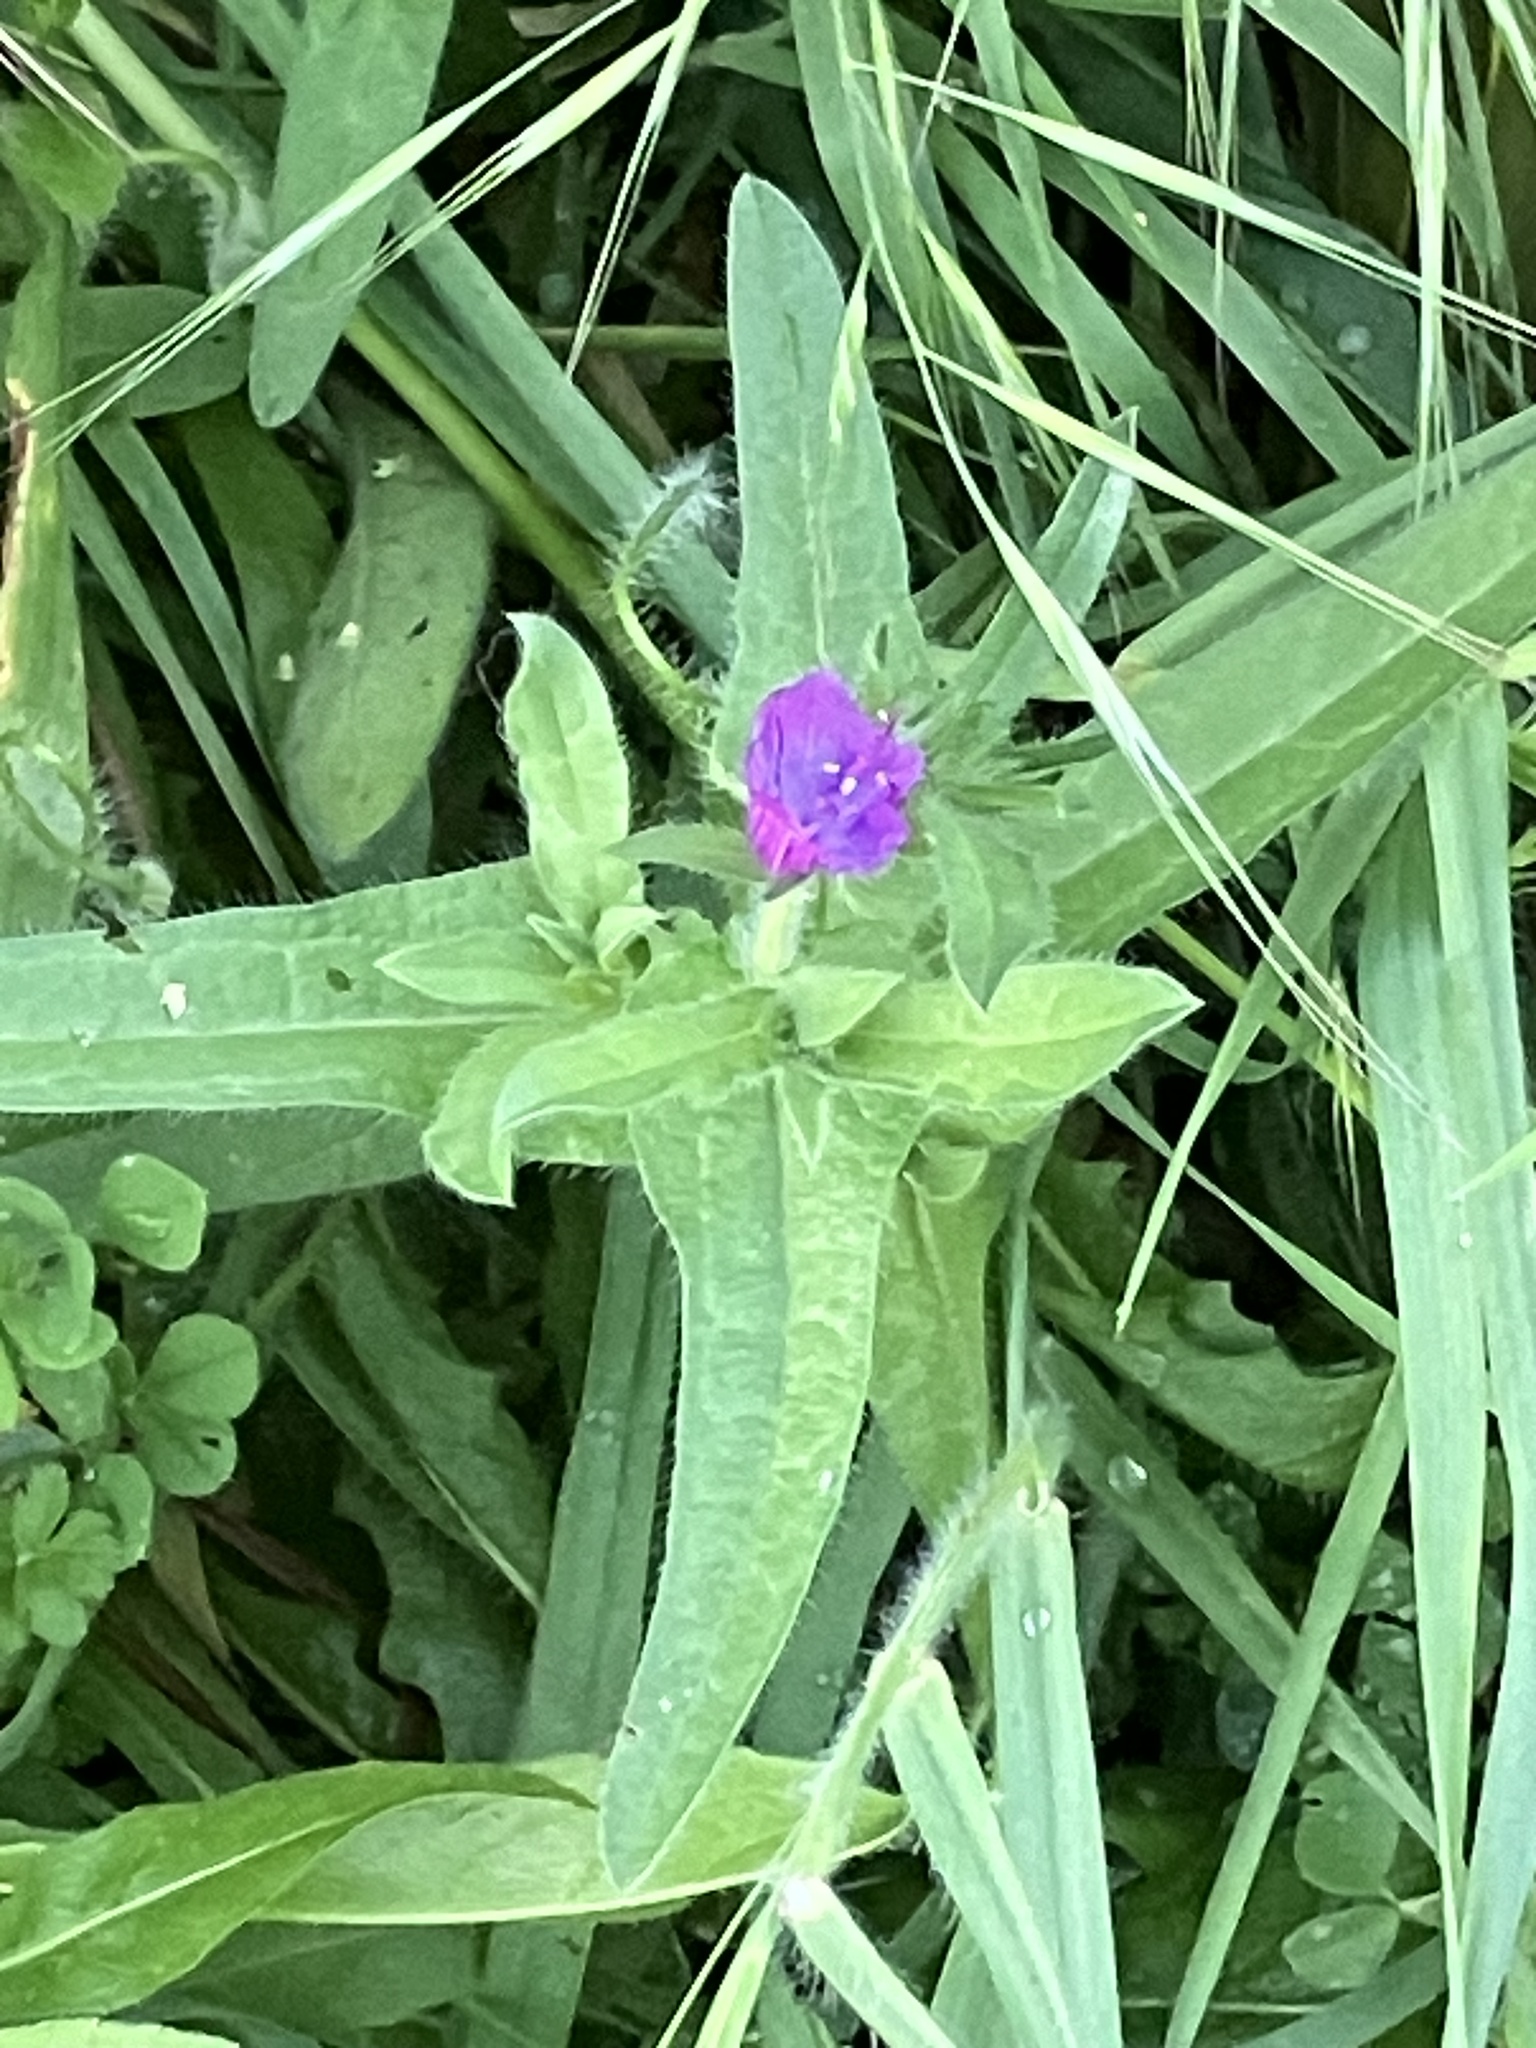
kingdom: Plantae
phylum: Tracheophyta
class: Magnoliopsida
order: Boraginales
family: Boraginaceae
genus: Echium
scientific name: Echium plantagineum
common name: Purple viper's-bugloss
